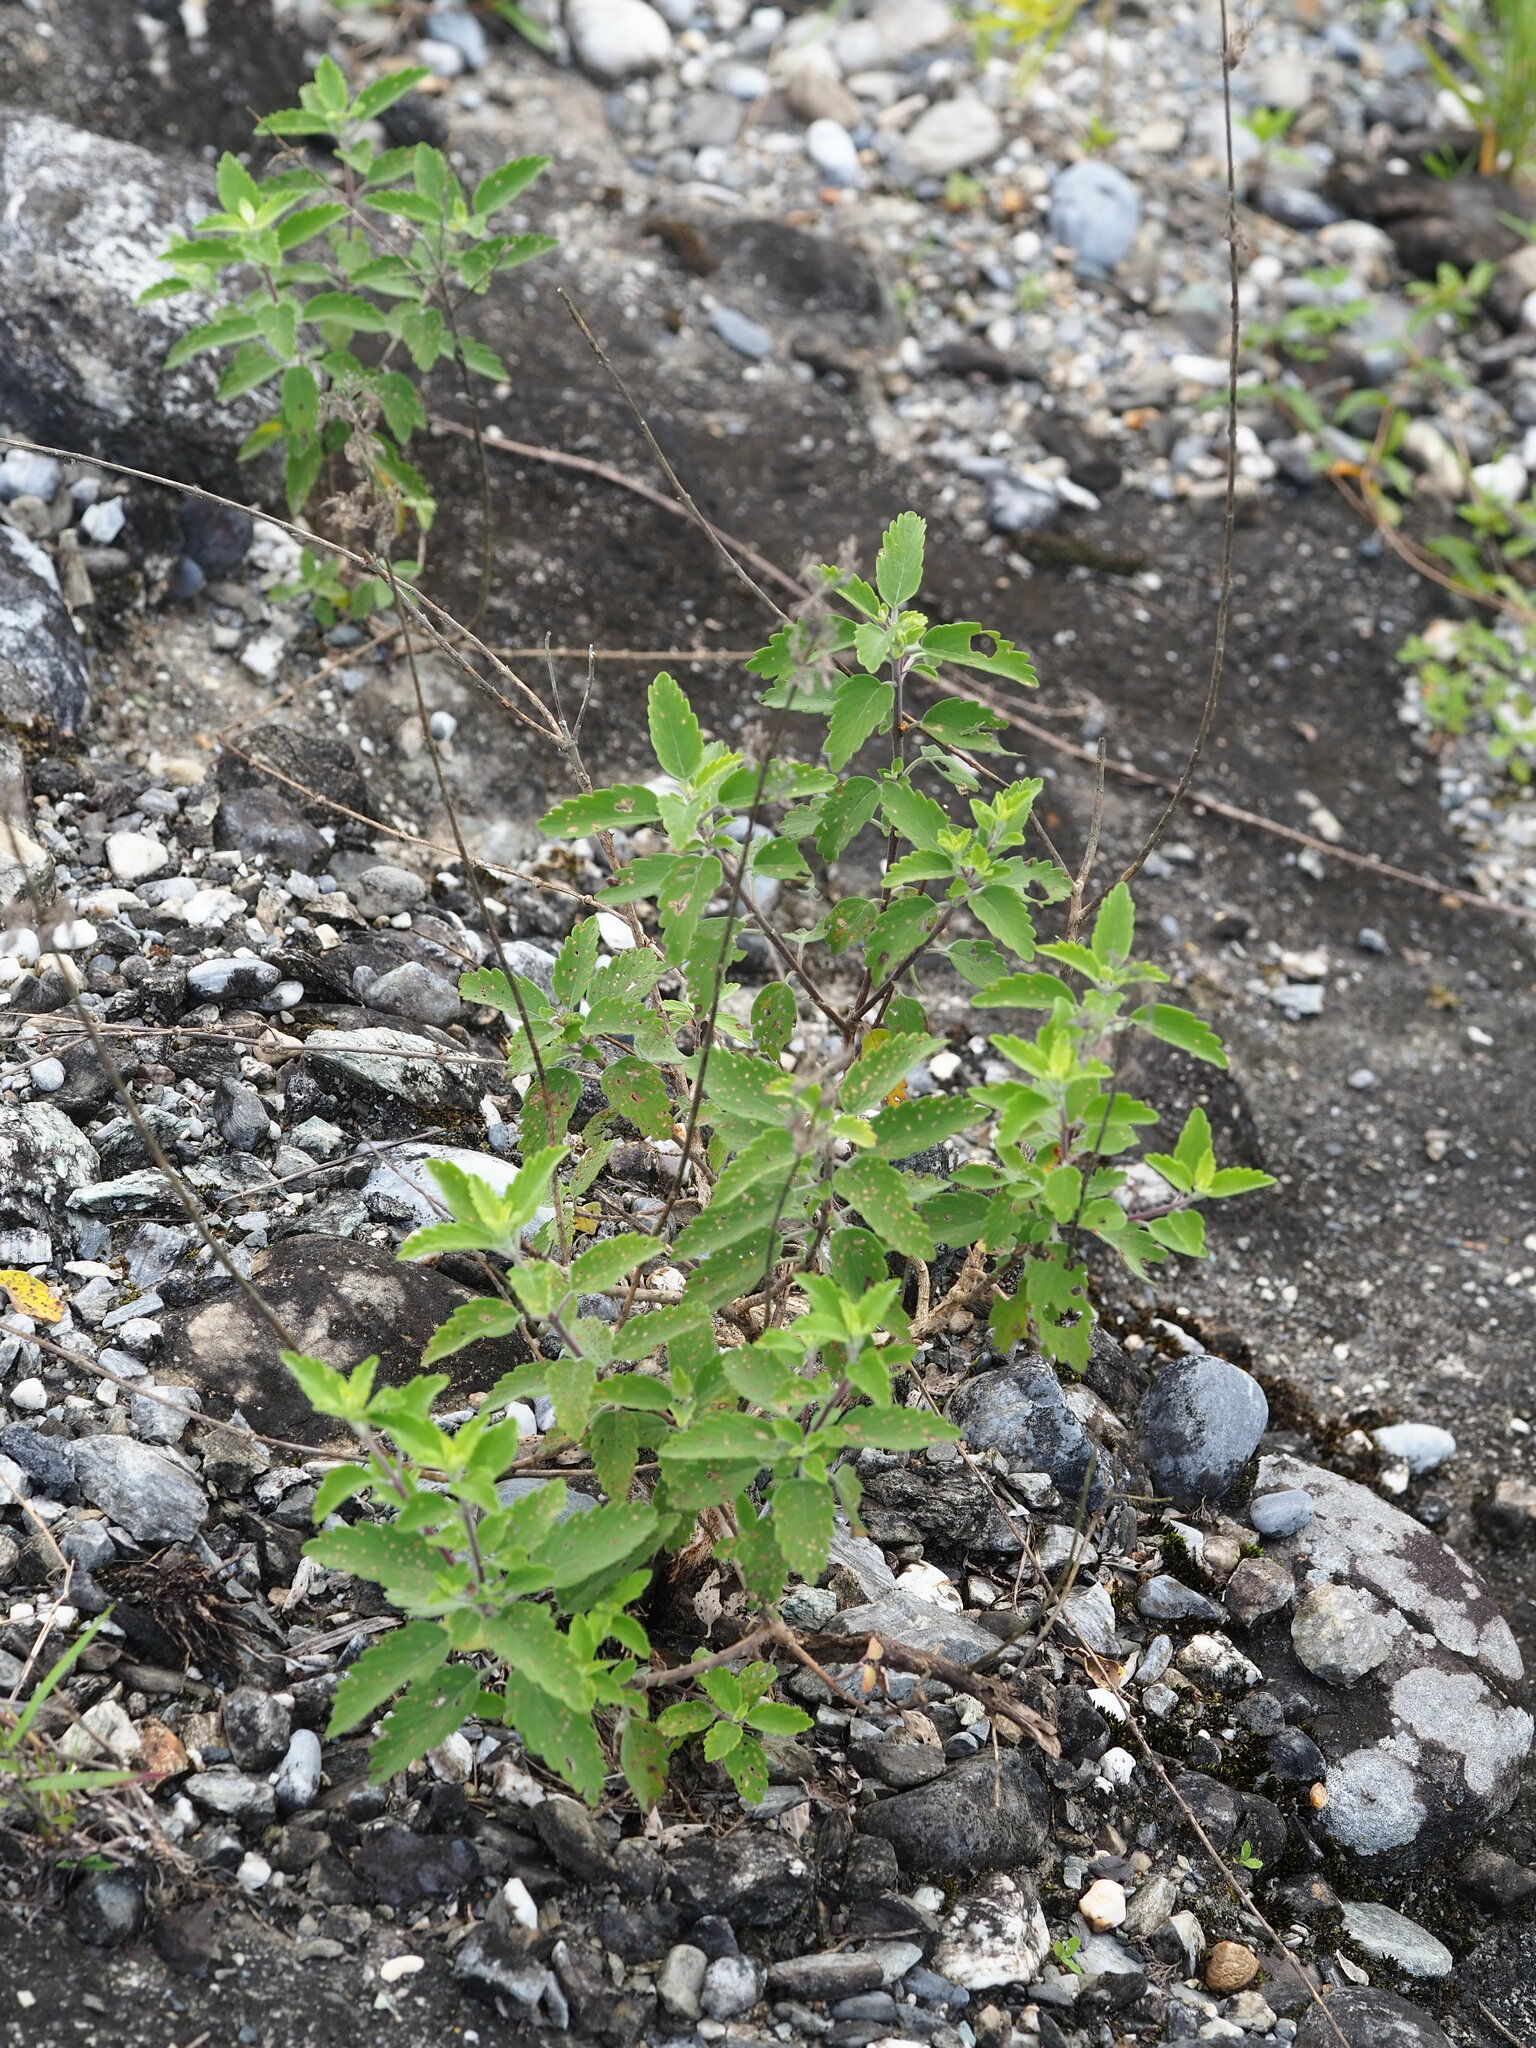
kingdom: Plantae
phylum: Tracheophyta
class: Magnoliopsida
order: Lamiales
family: Lamiaceae
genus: Caryopteris
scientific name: Caryopteris incana
